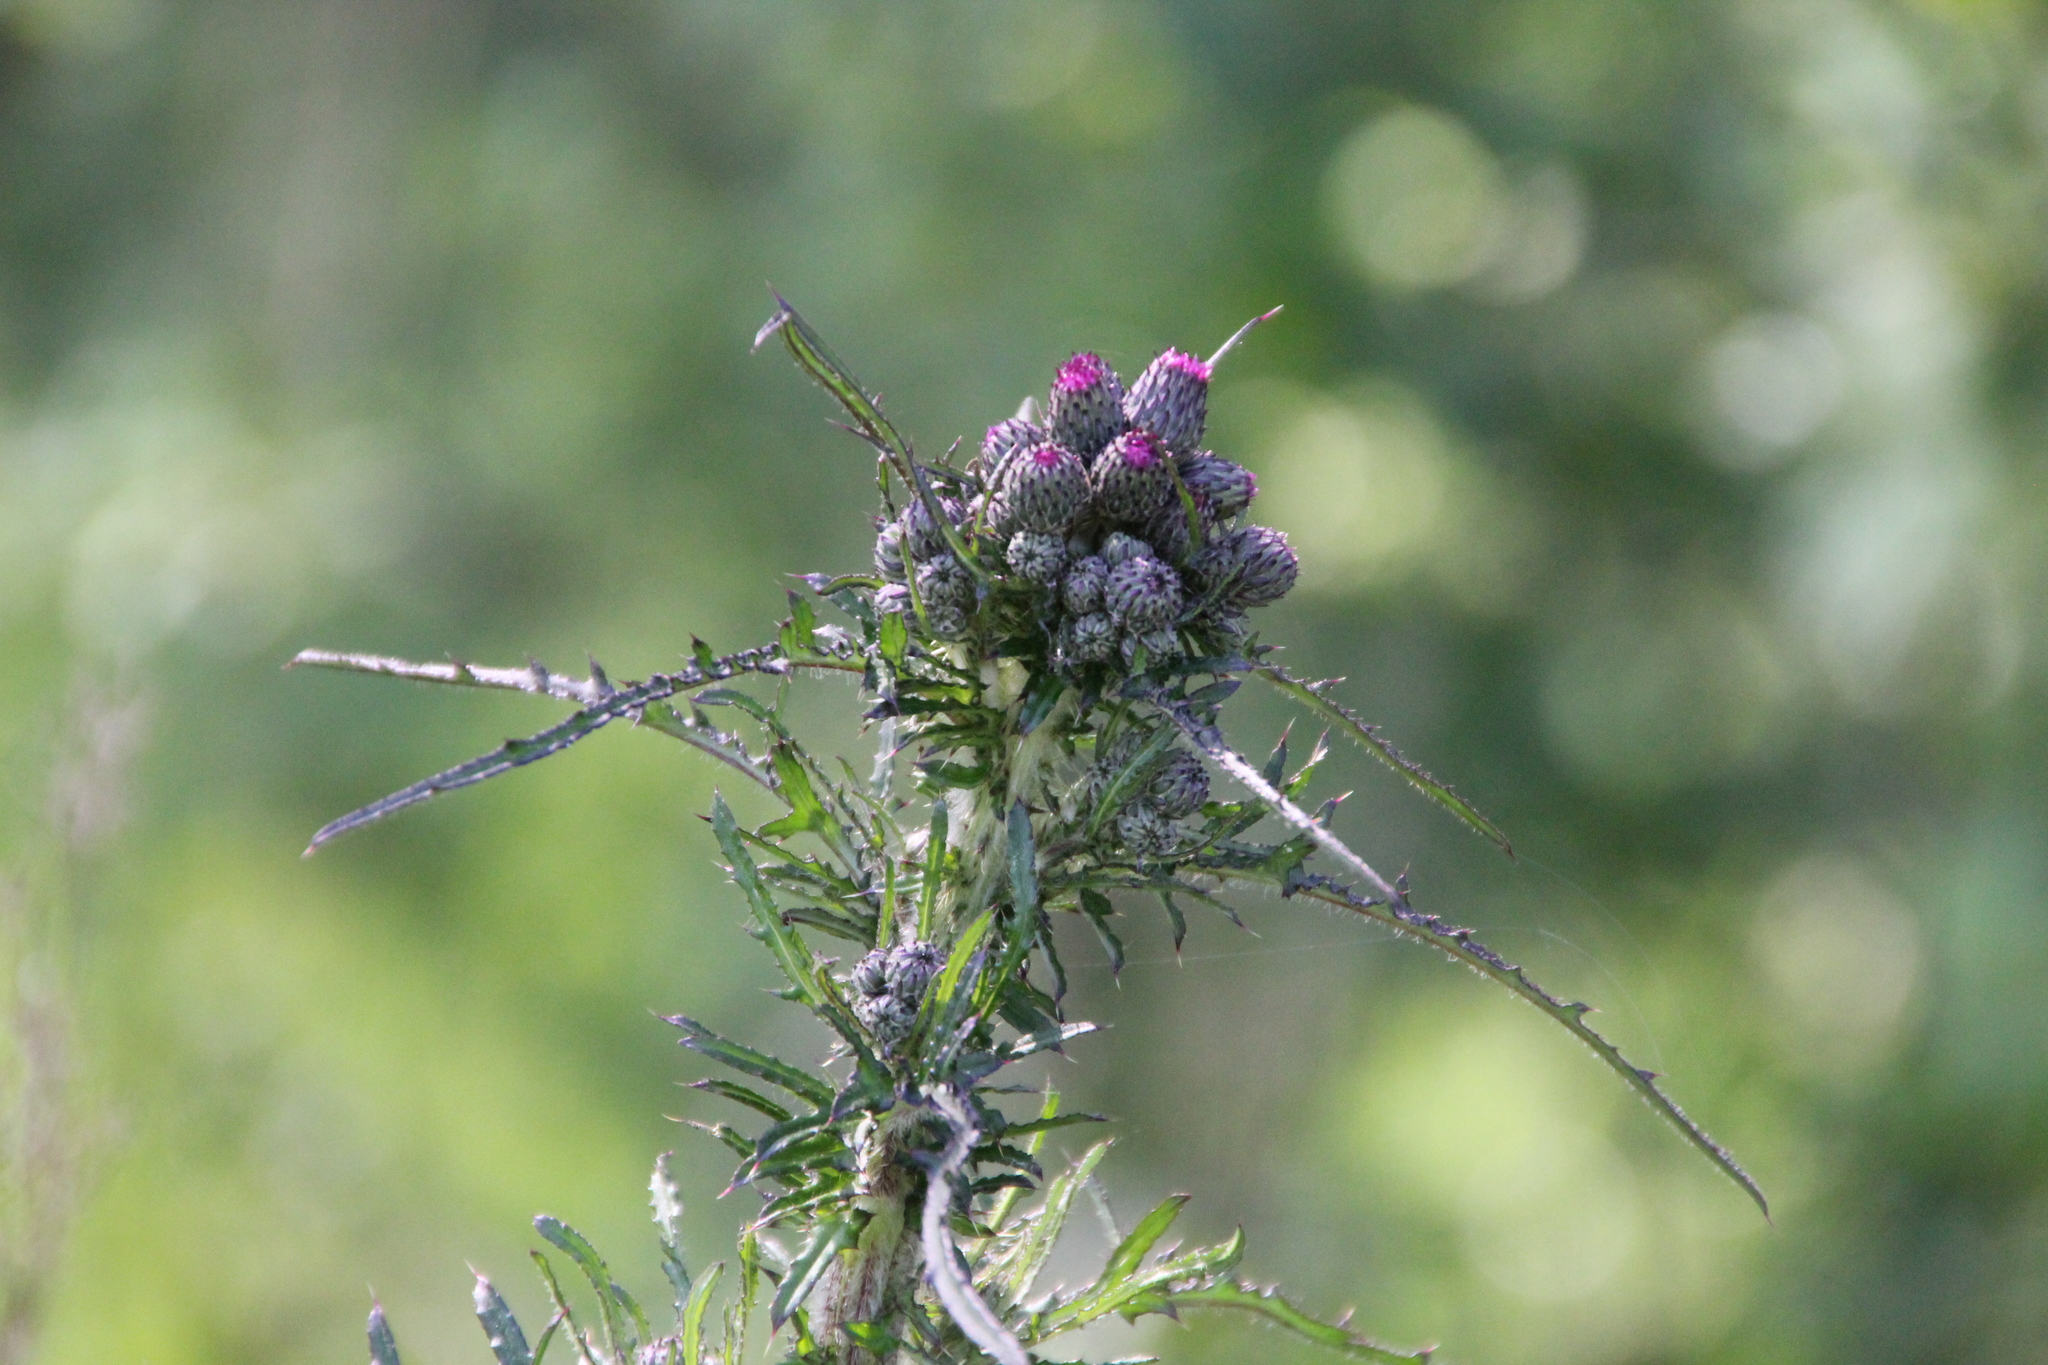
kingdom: Plantae
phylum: Tracheophyta
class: Magnoliopsida
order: Asterales
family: Asteraceae
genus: Cirsium
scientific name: Cirsium palustre
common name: Marsh thistle
